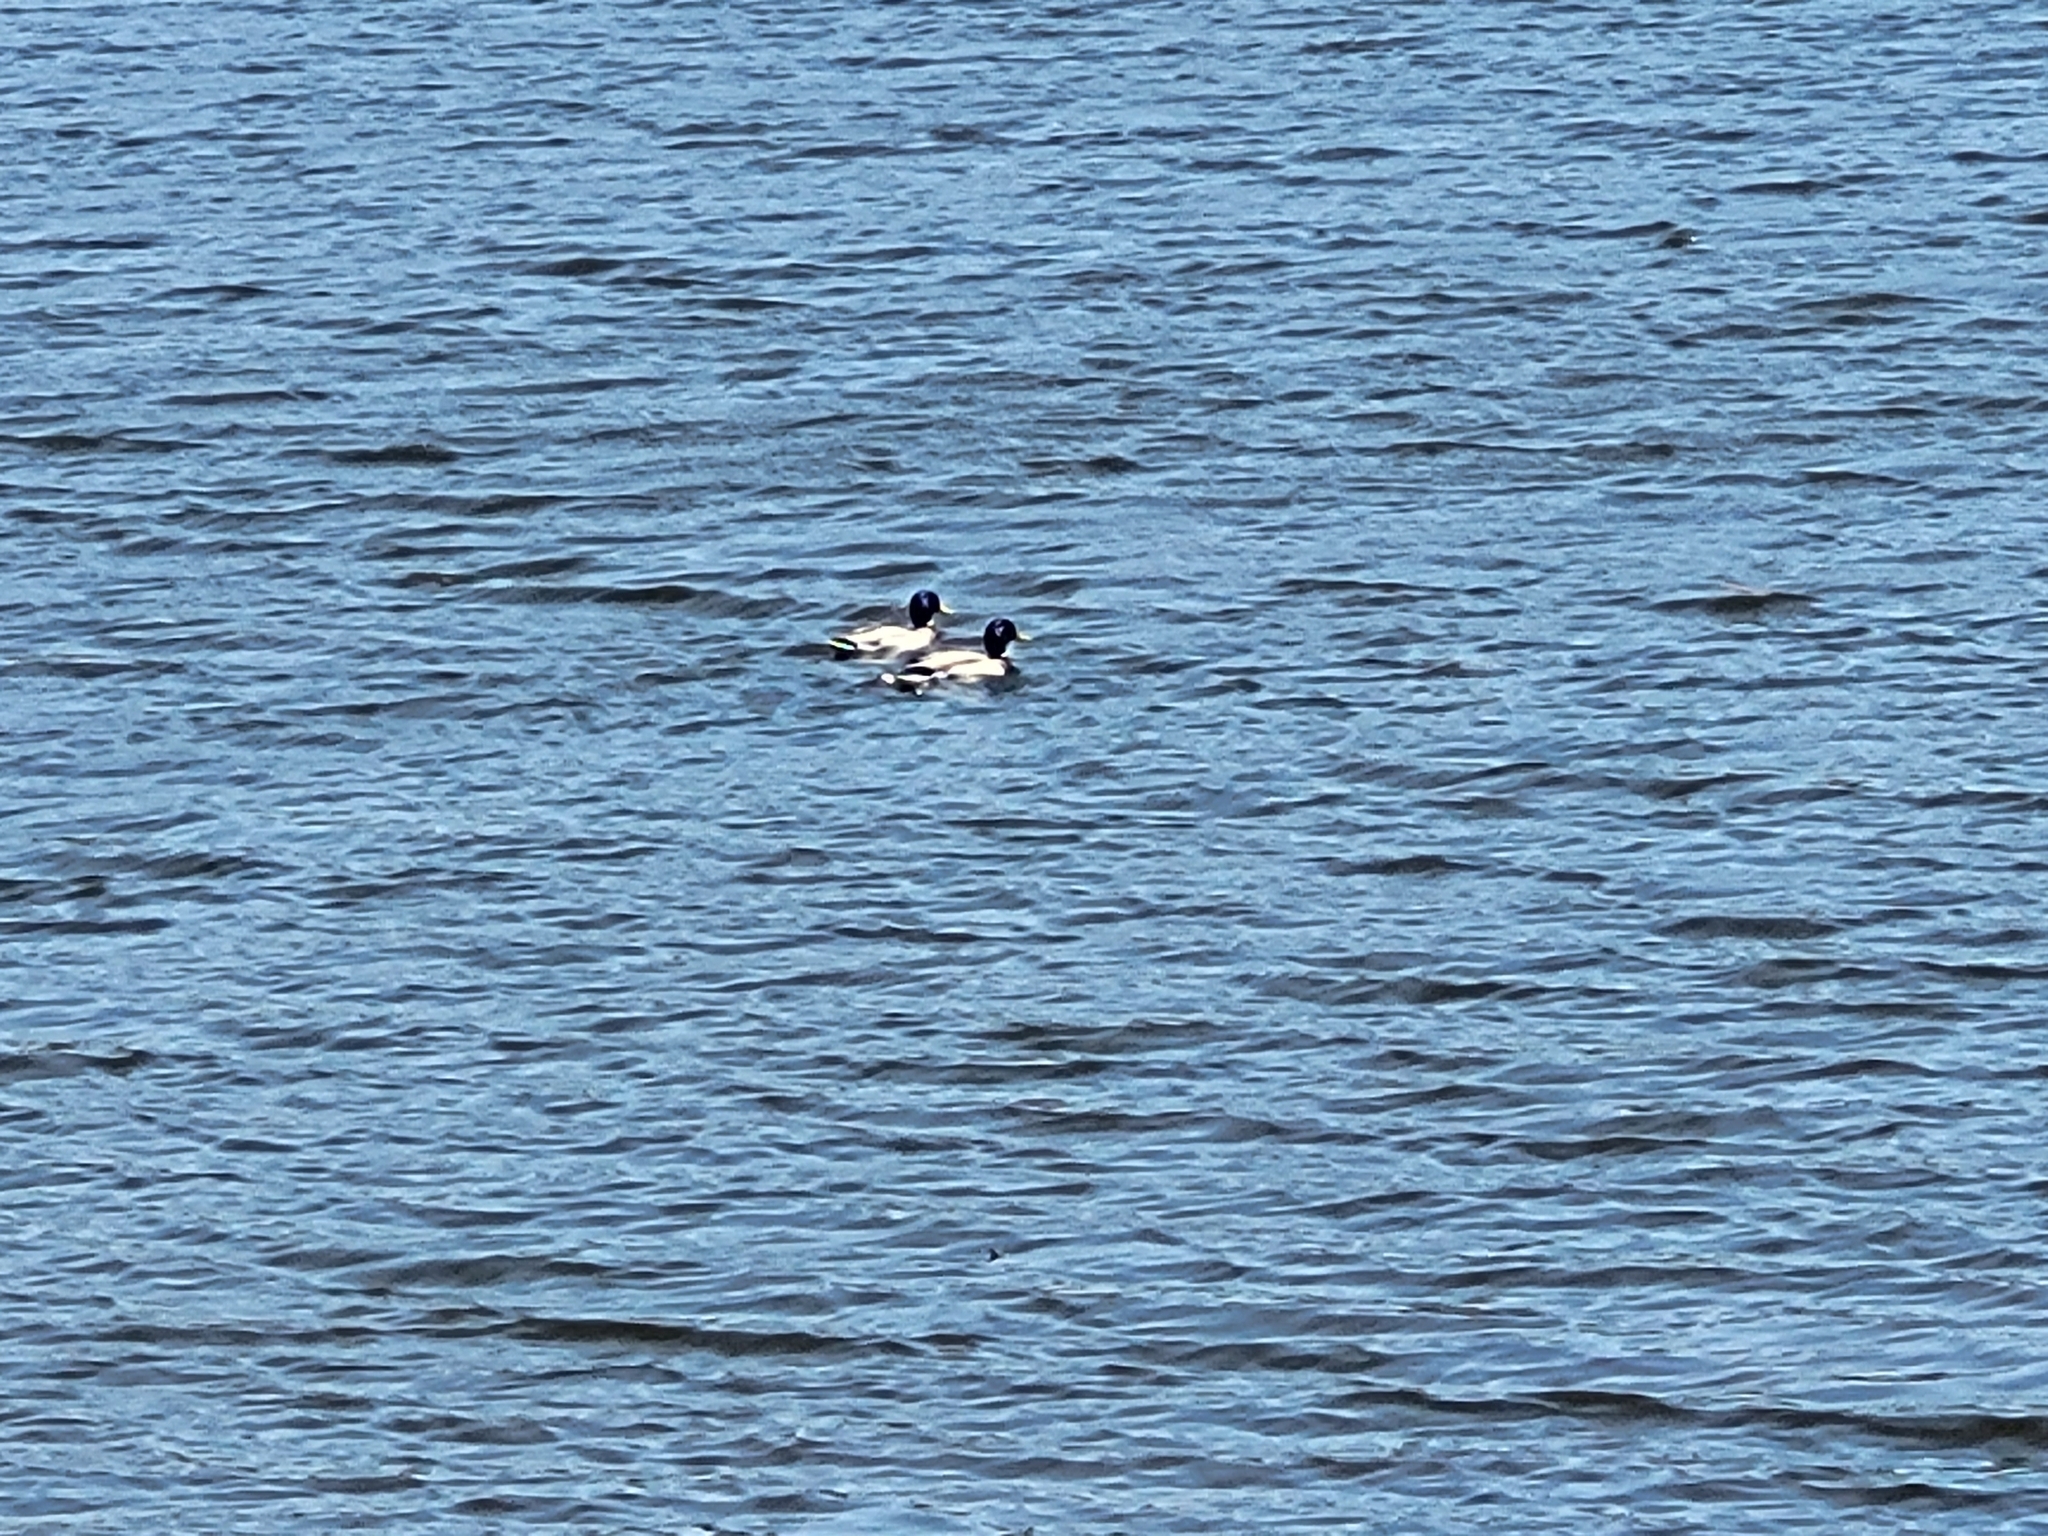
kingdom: Animalia
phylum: Chordata
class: Aves
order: Anseriformes
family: Anatidae
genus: Anas
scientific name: Anas platyrhynchos
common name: Mallard
